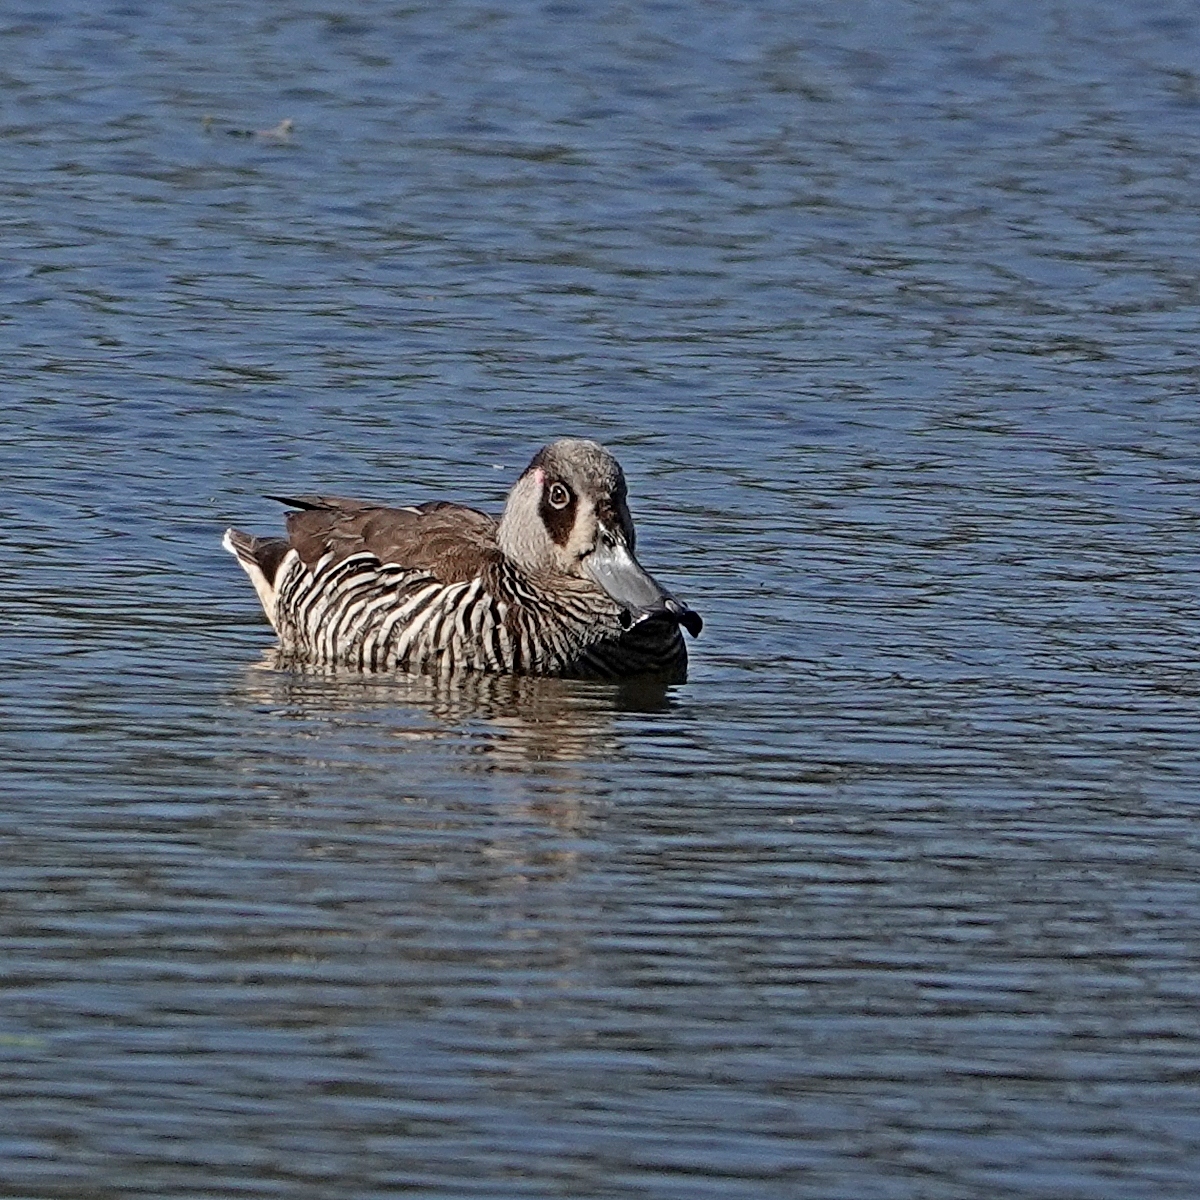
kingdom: Animalia
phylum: Chordata
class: Aves
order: Anseriformes
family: Anatidae
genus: Malacorhynchus
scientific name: Malacorhynchus membranaceus
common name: Pink-eared duck
